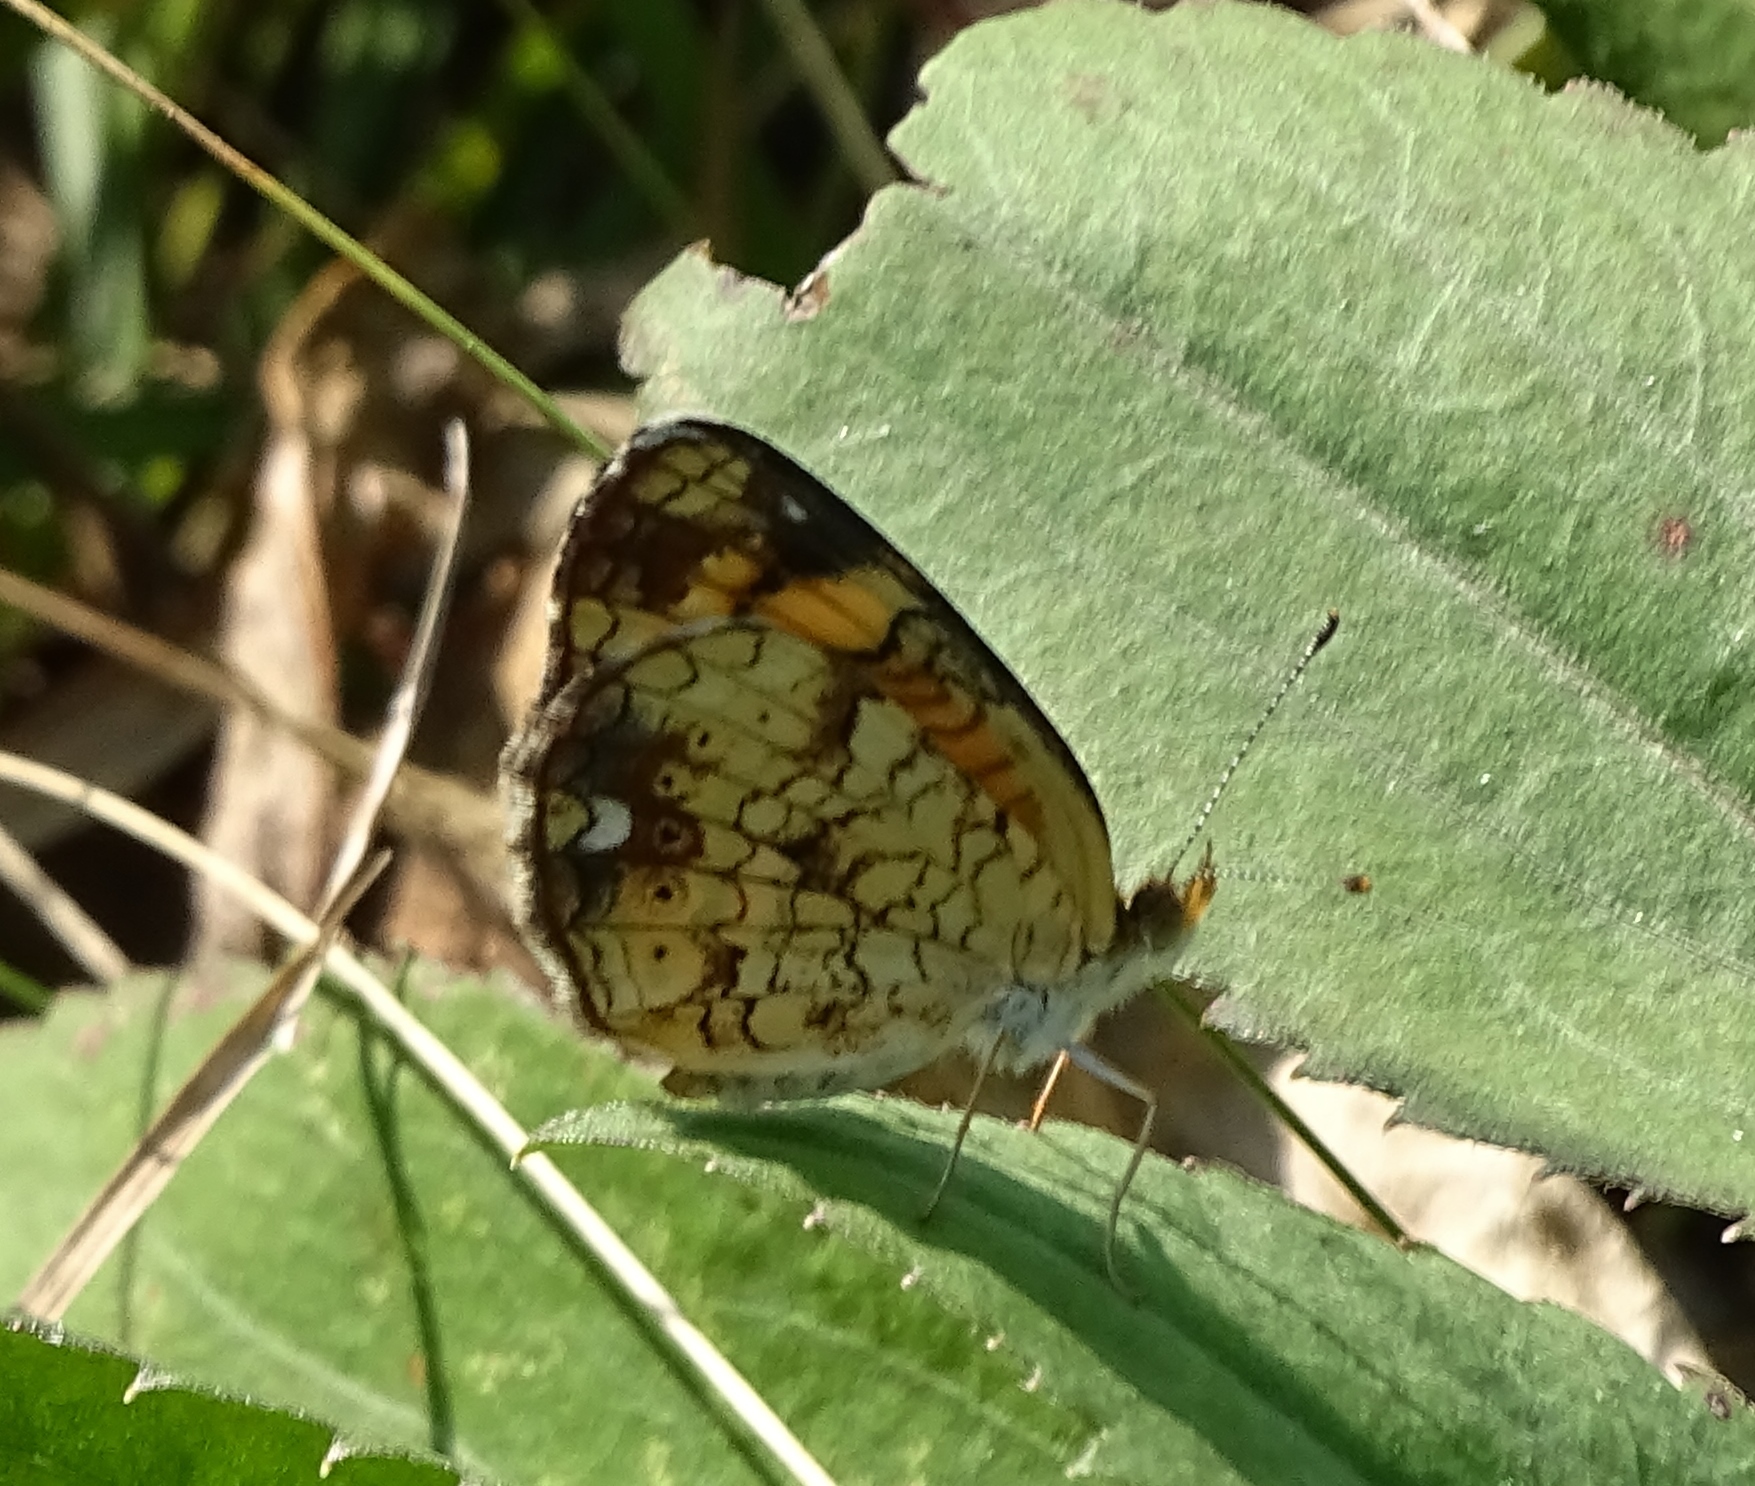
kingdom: Animalia
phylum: Arthropoda
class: Insecta
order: Lepidoptera
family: Nymphalidae
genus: Phyciodes
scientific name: Phyciodes tharos
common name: Pearl crescent
